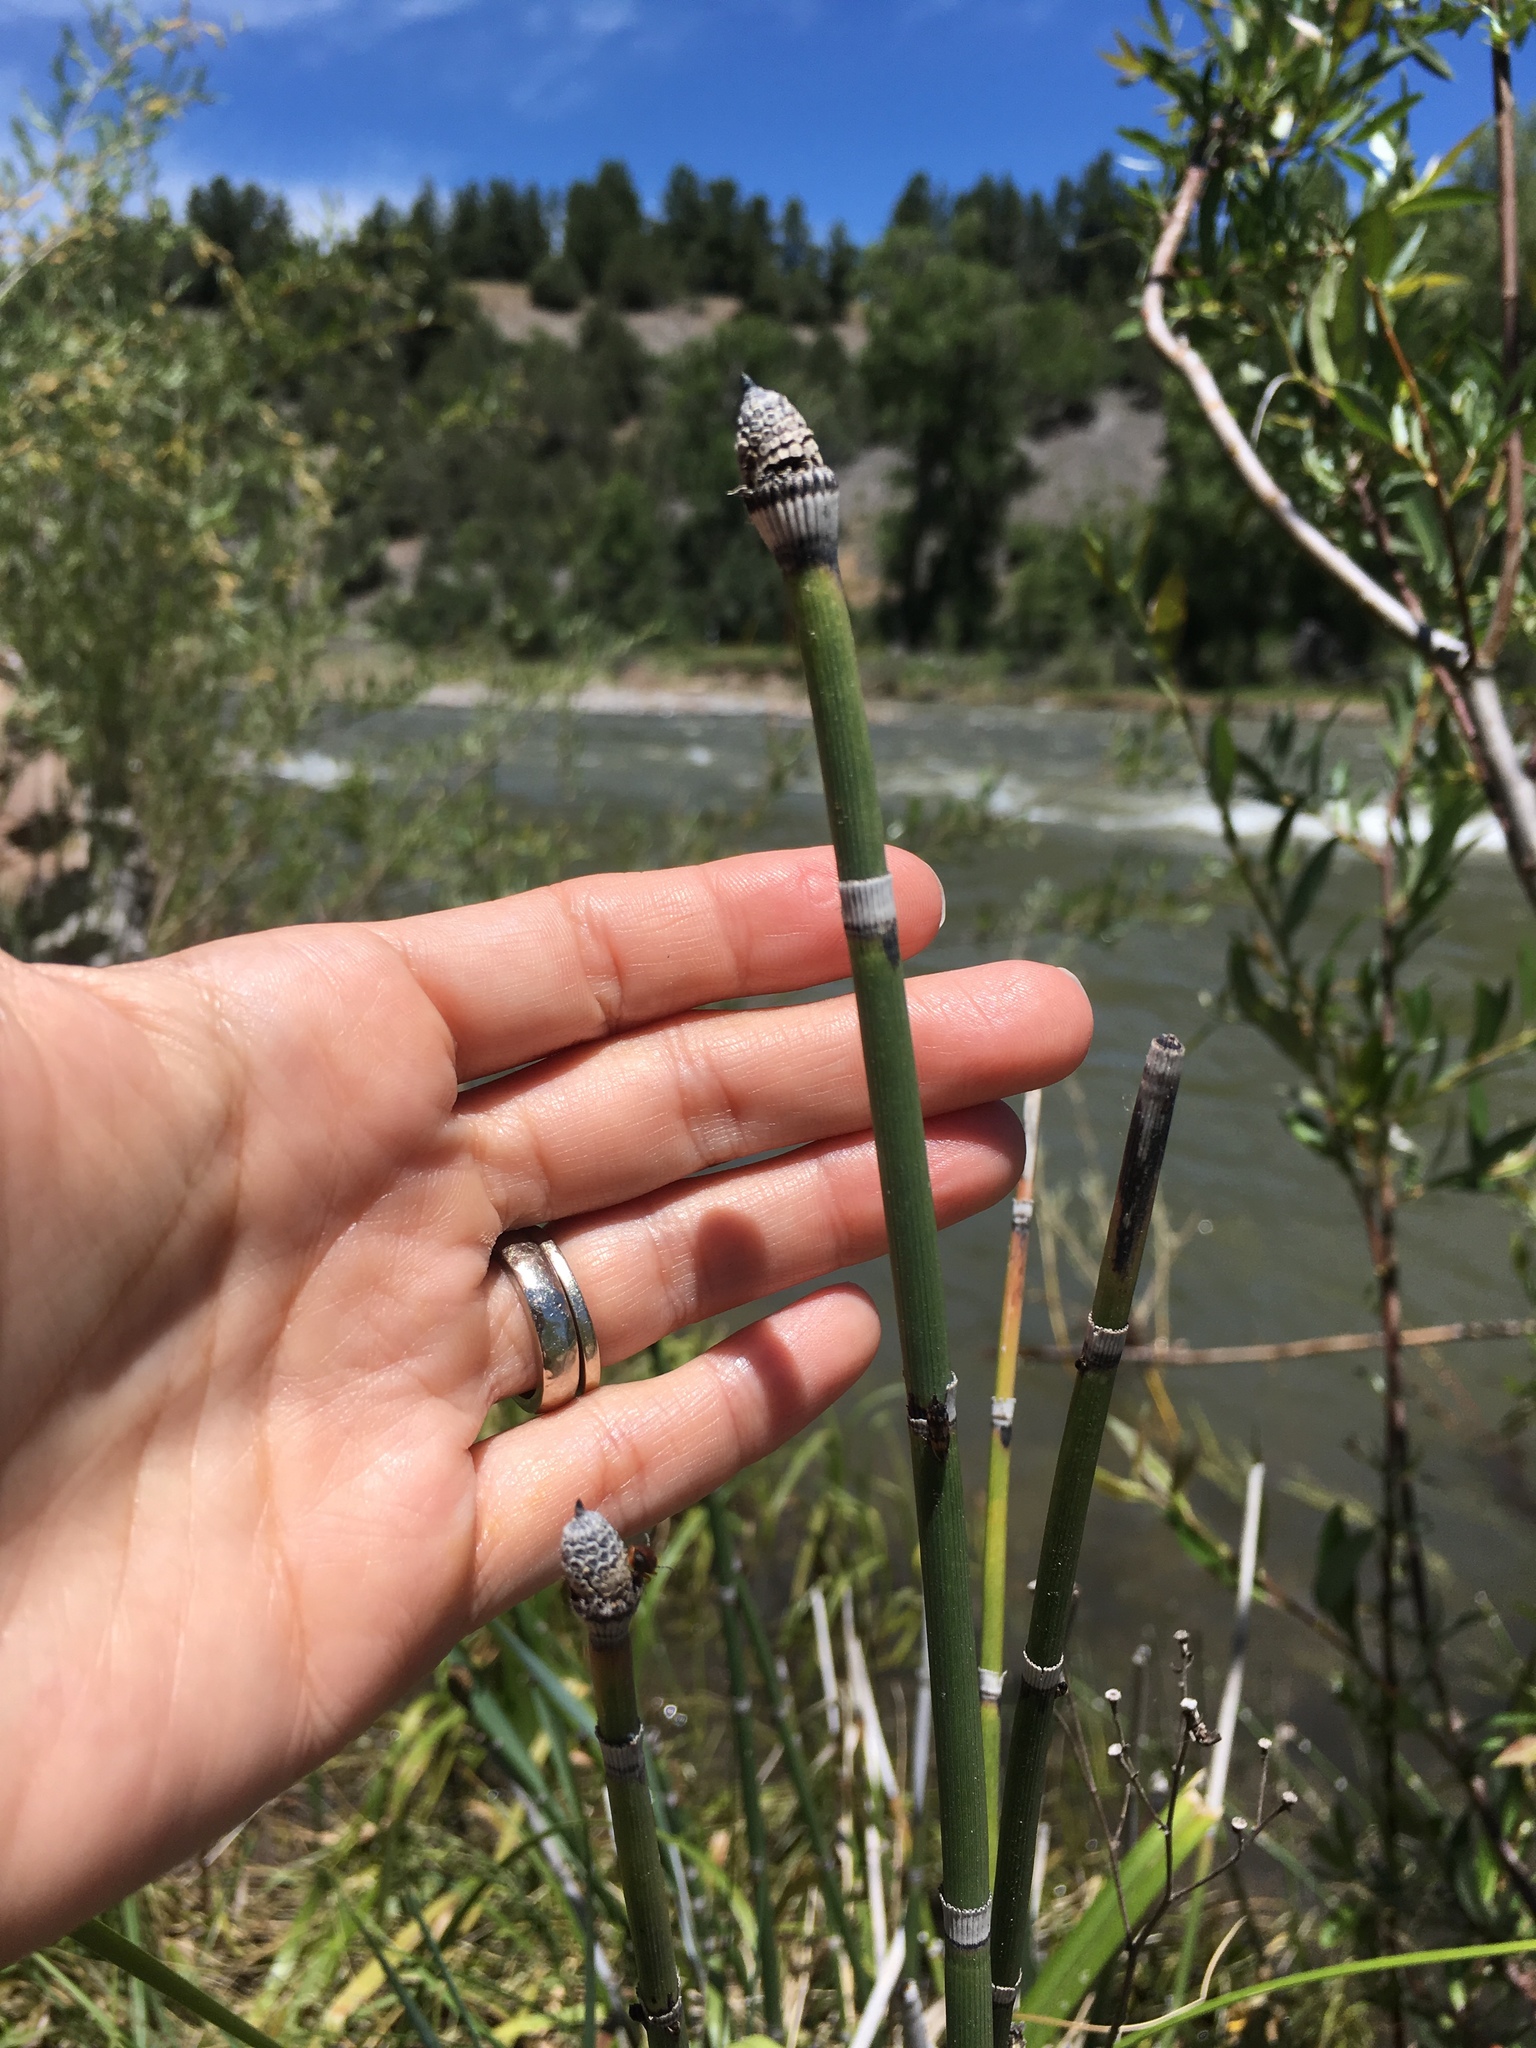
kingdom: Plantae
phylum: Tracheophyta
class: Polypodiopsida
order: Equisetales
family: Equisetaceae
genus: Equisetum
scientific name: Equisetum praealtum
